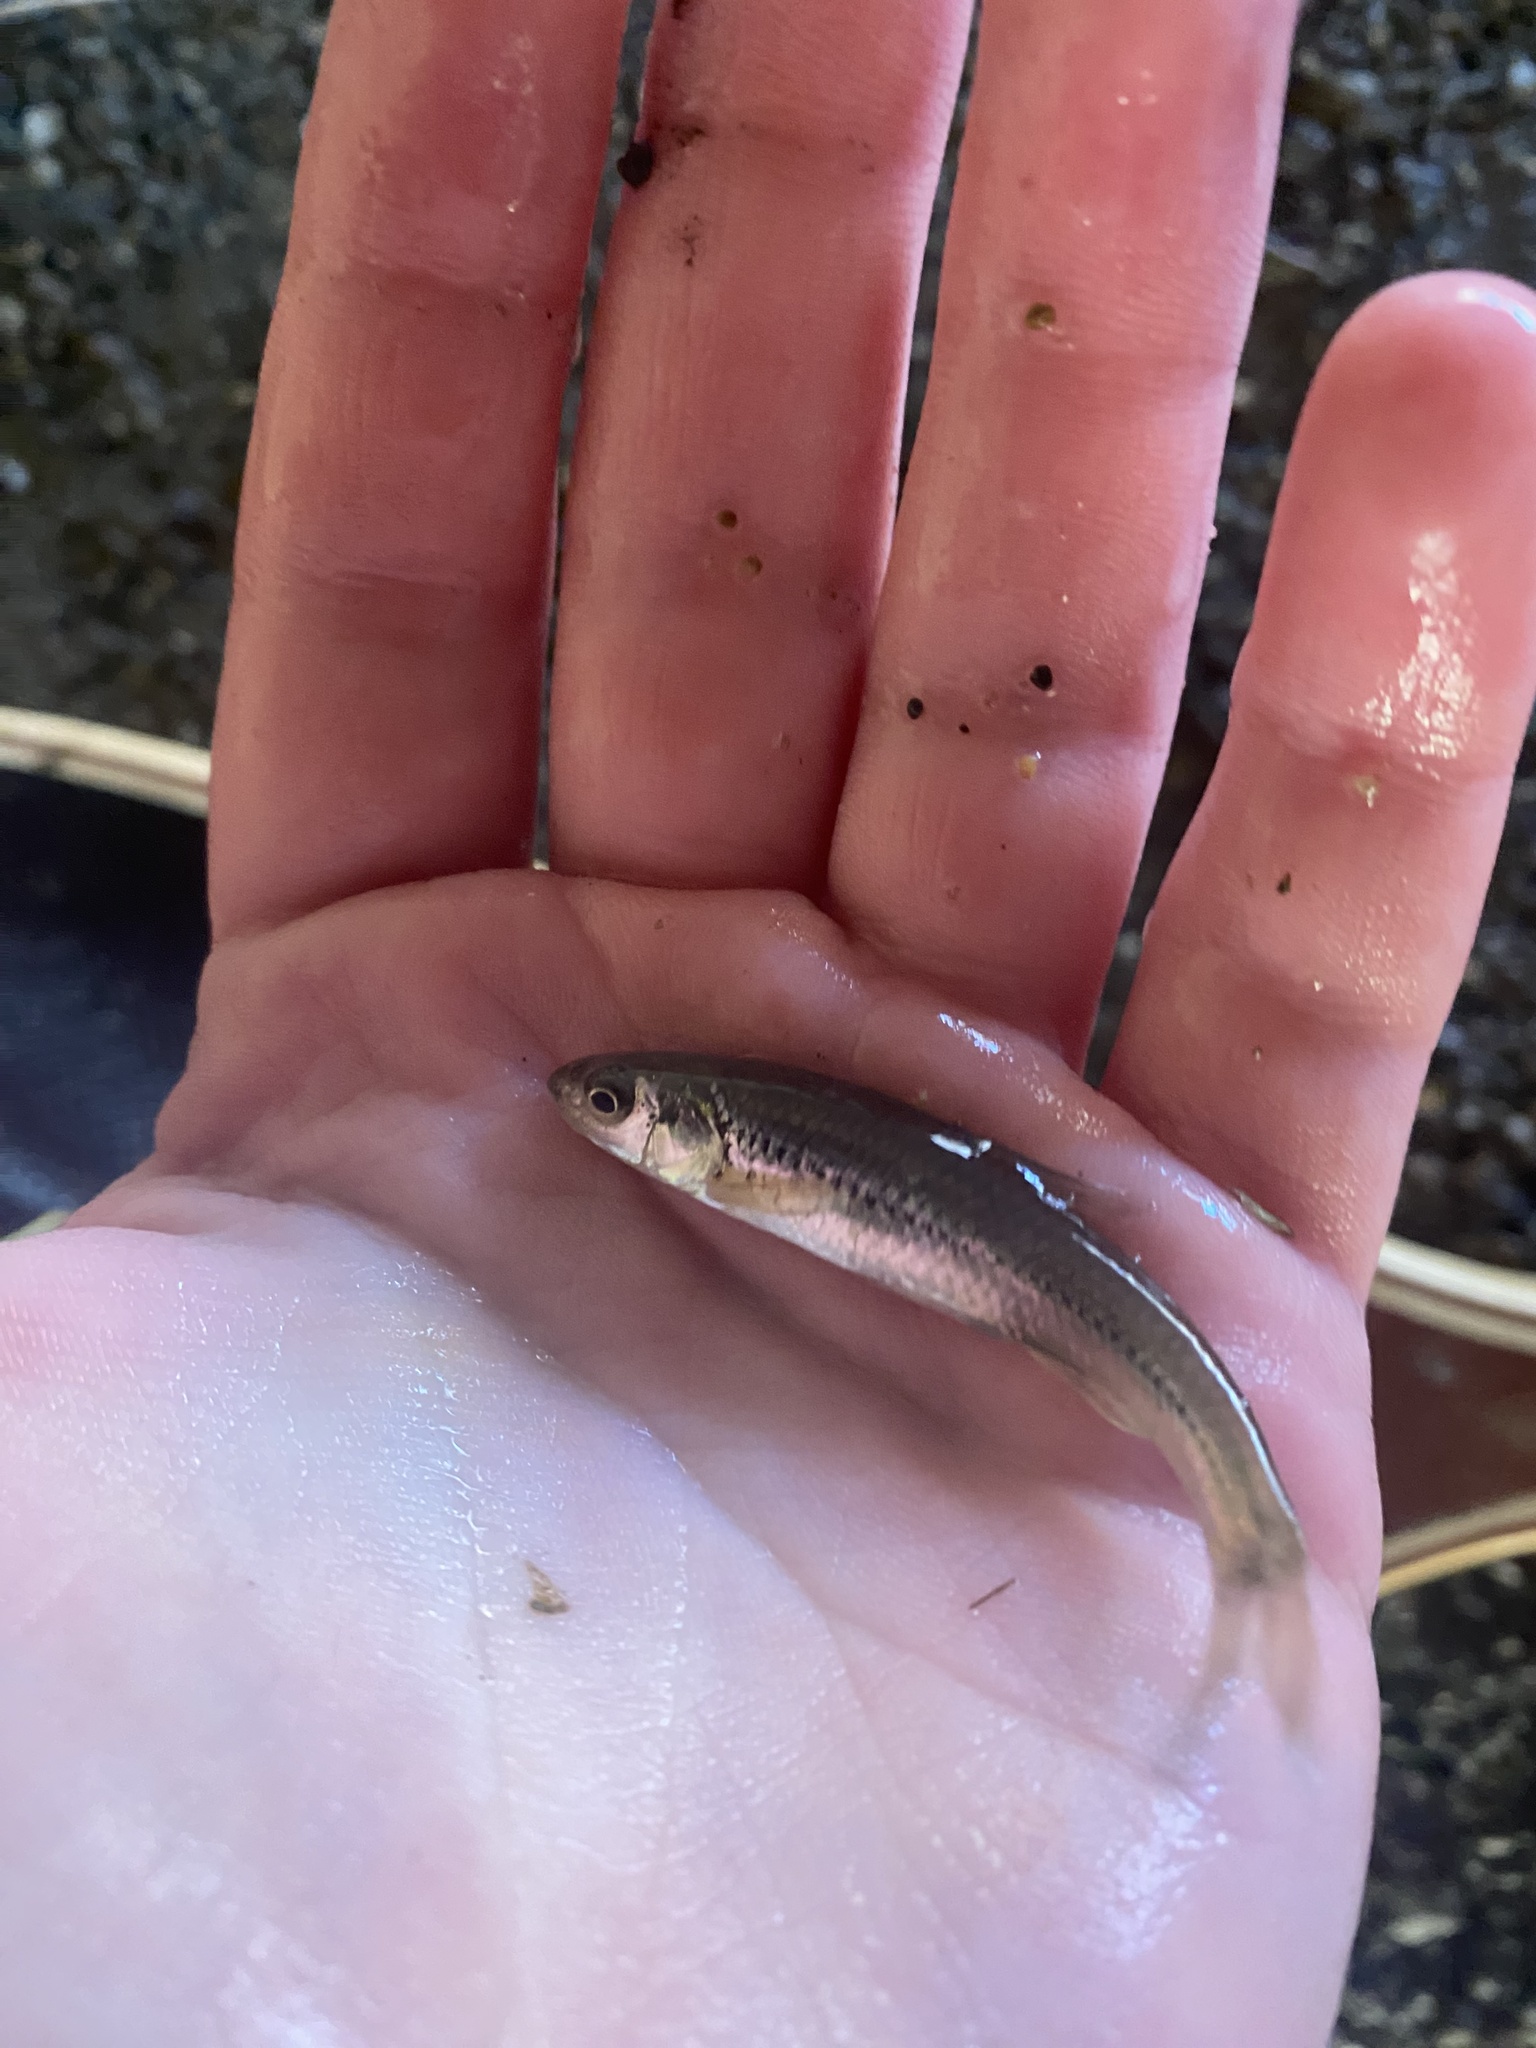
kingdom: Animalia
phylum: Chordata
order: Cypriniformes
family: Cyprinidae
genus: Ericymba
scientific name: Ericymba
